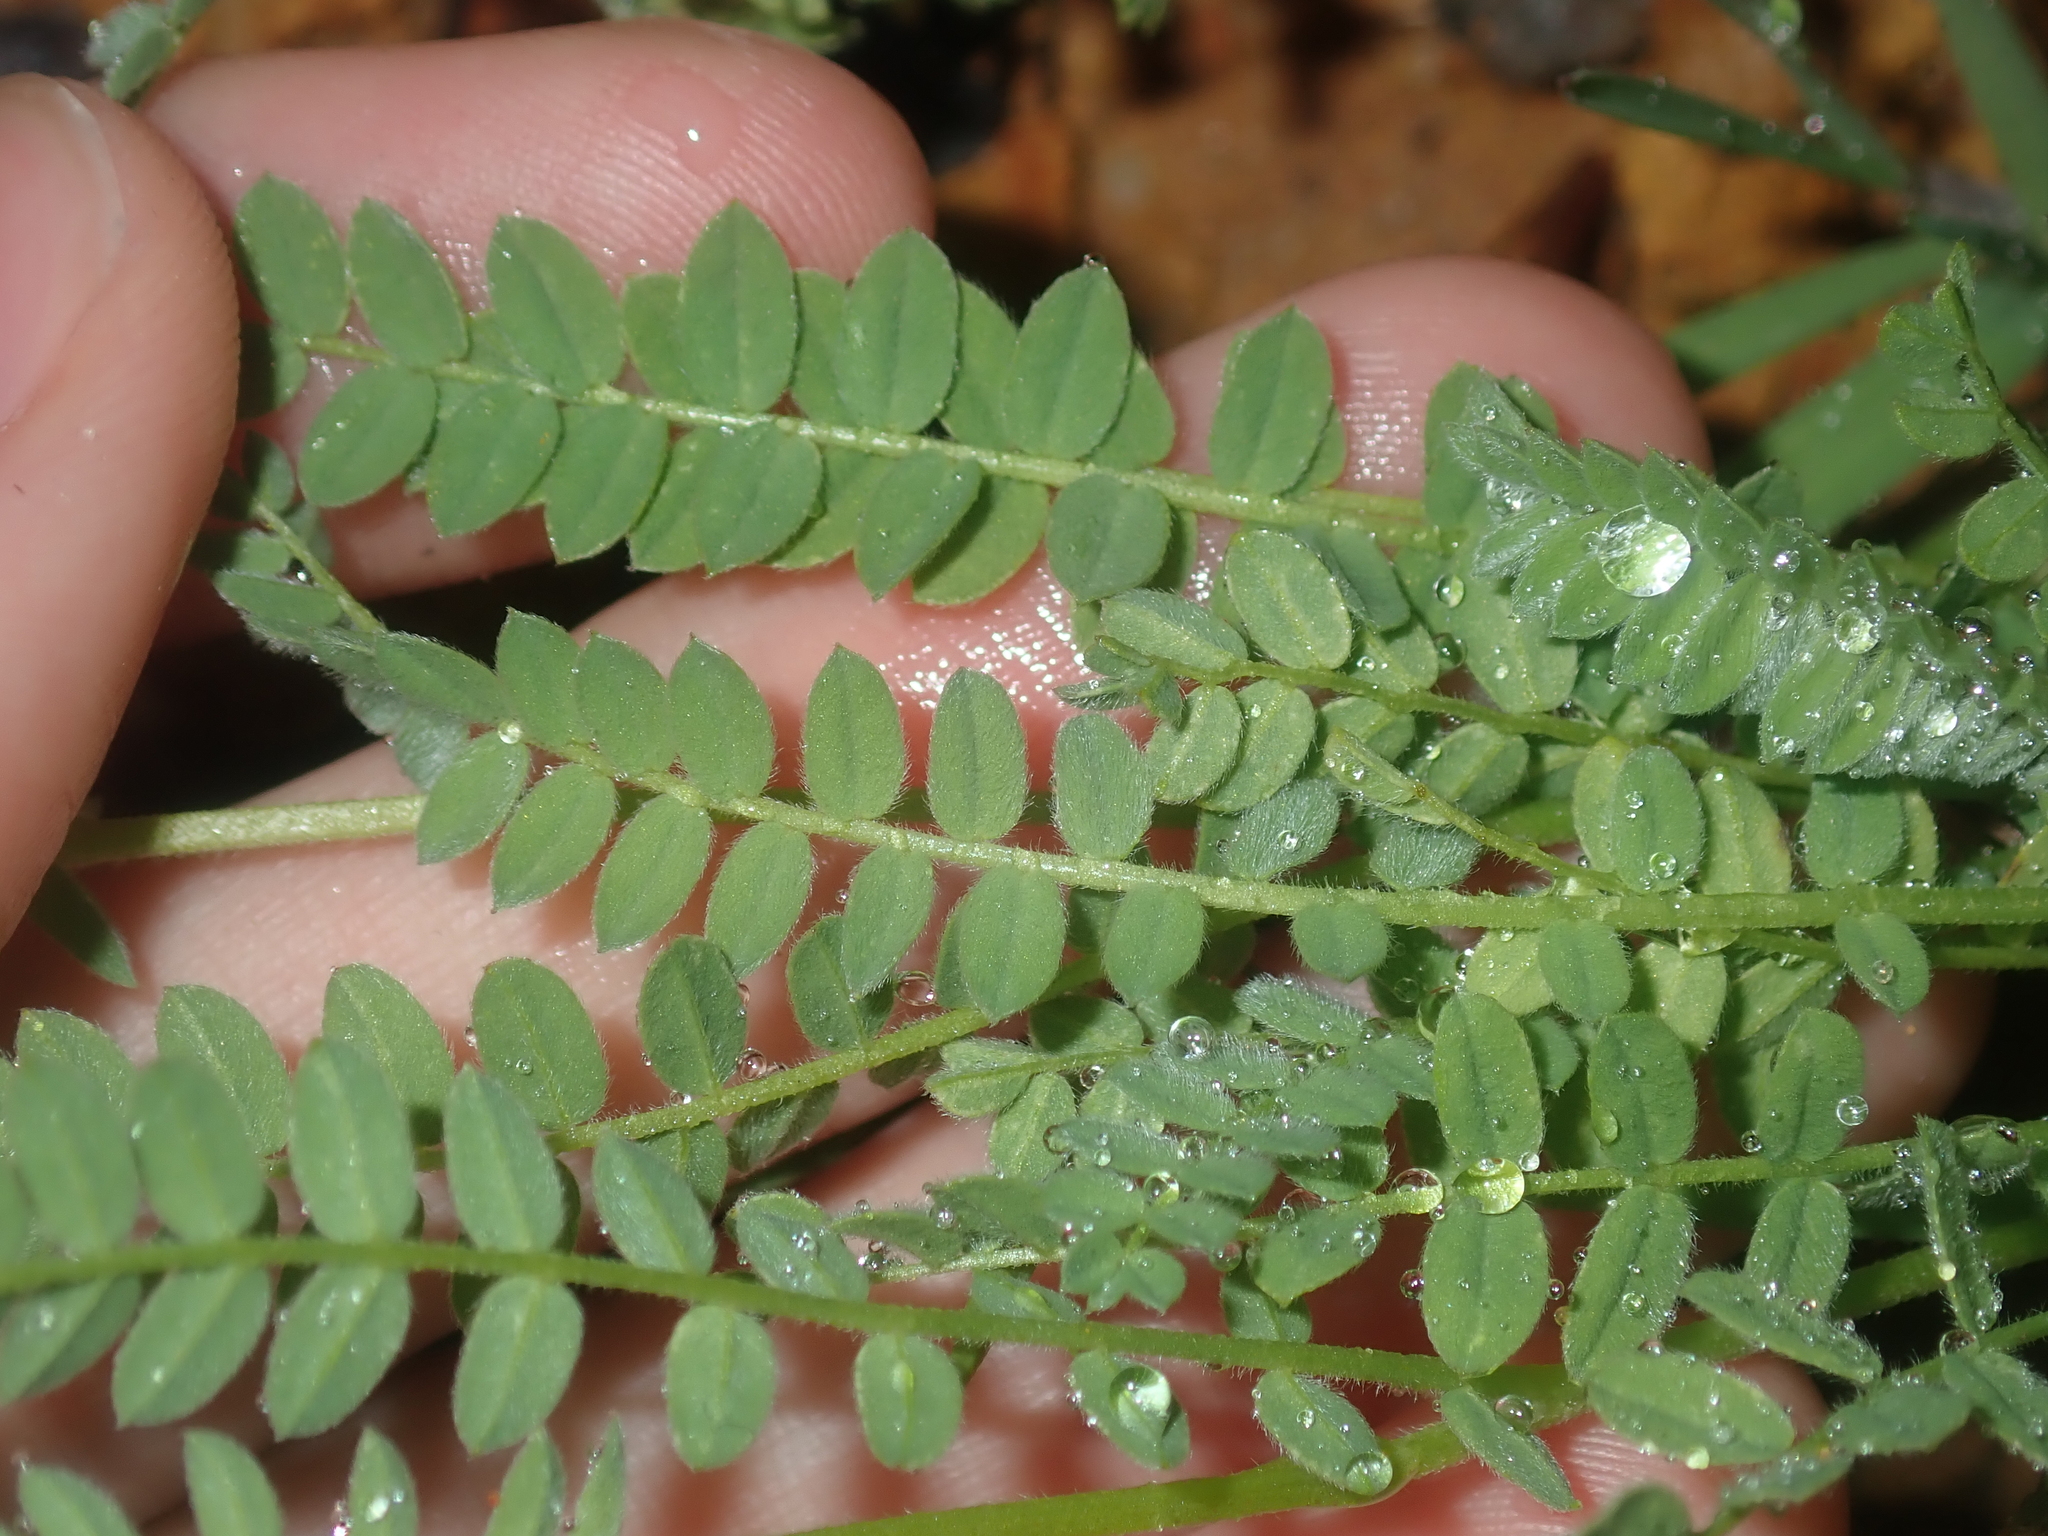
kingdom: Plantae
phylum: Tracheophyta
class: Magnoliopsida
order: Fabales
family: Fabaceae
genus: Ornithopus
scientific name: Ornithopus sativus
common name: Serradella
